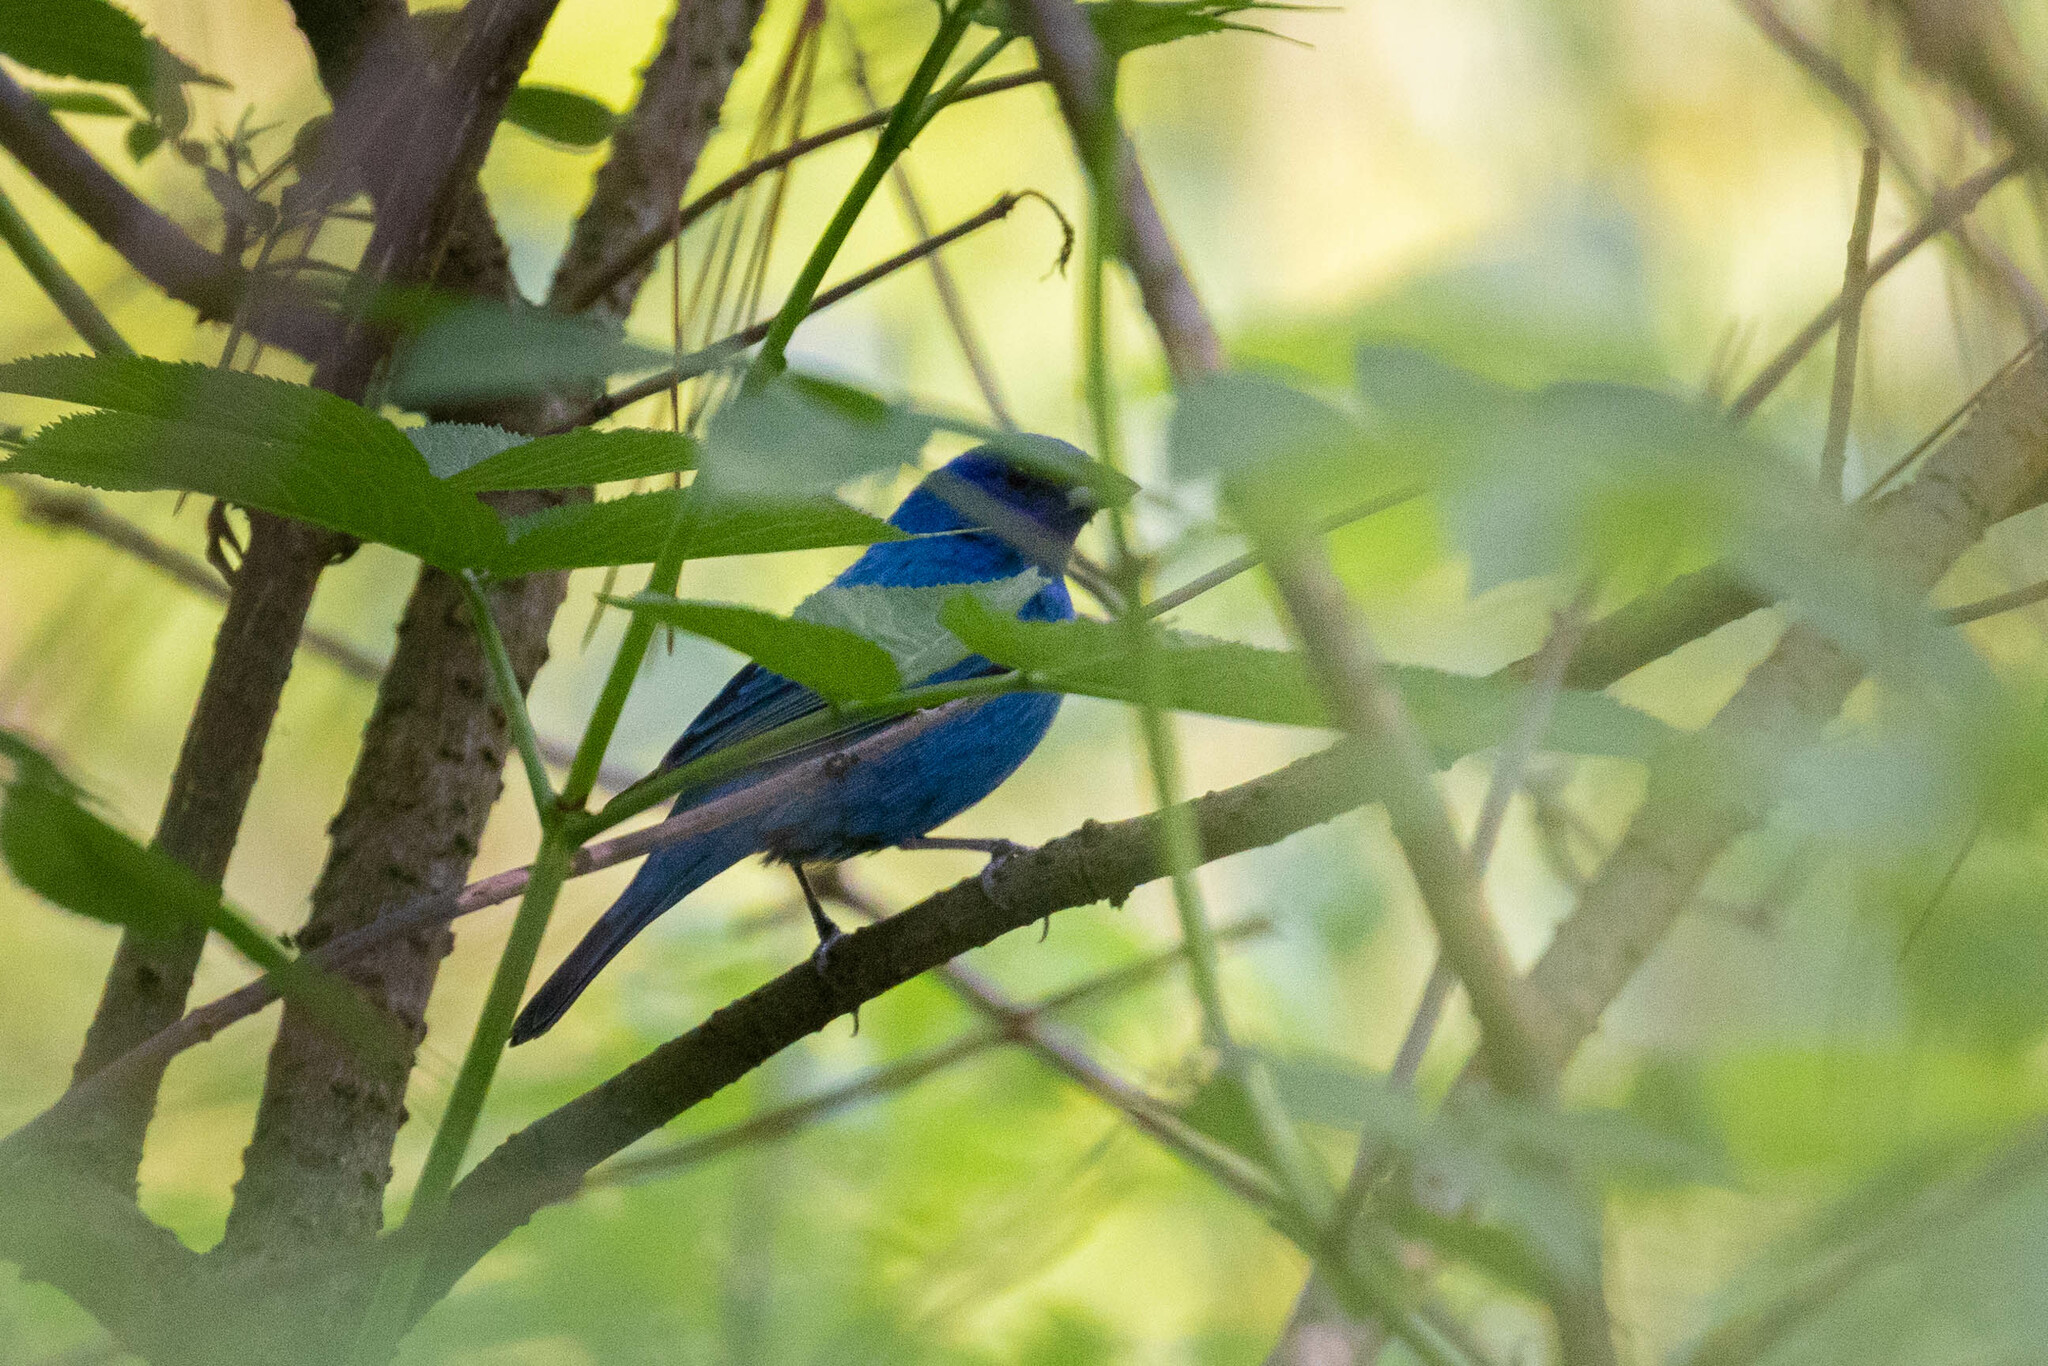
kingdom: Animalia
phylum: Chordata
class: Aves
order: Passeriformes
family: Cardinalidae
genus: Passerina
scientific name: Passerina cyanea
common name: Indigo bunting
